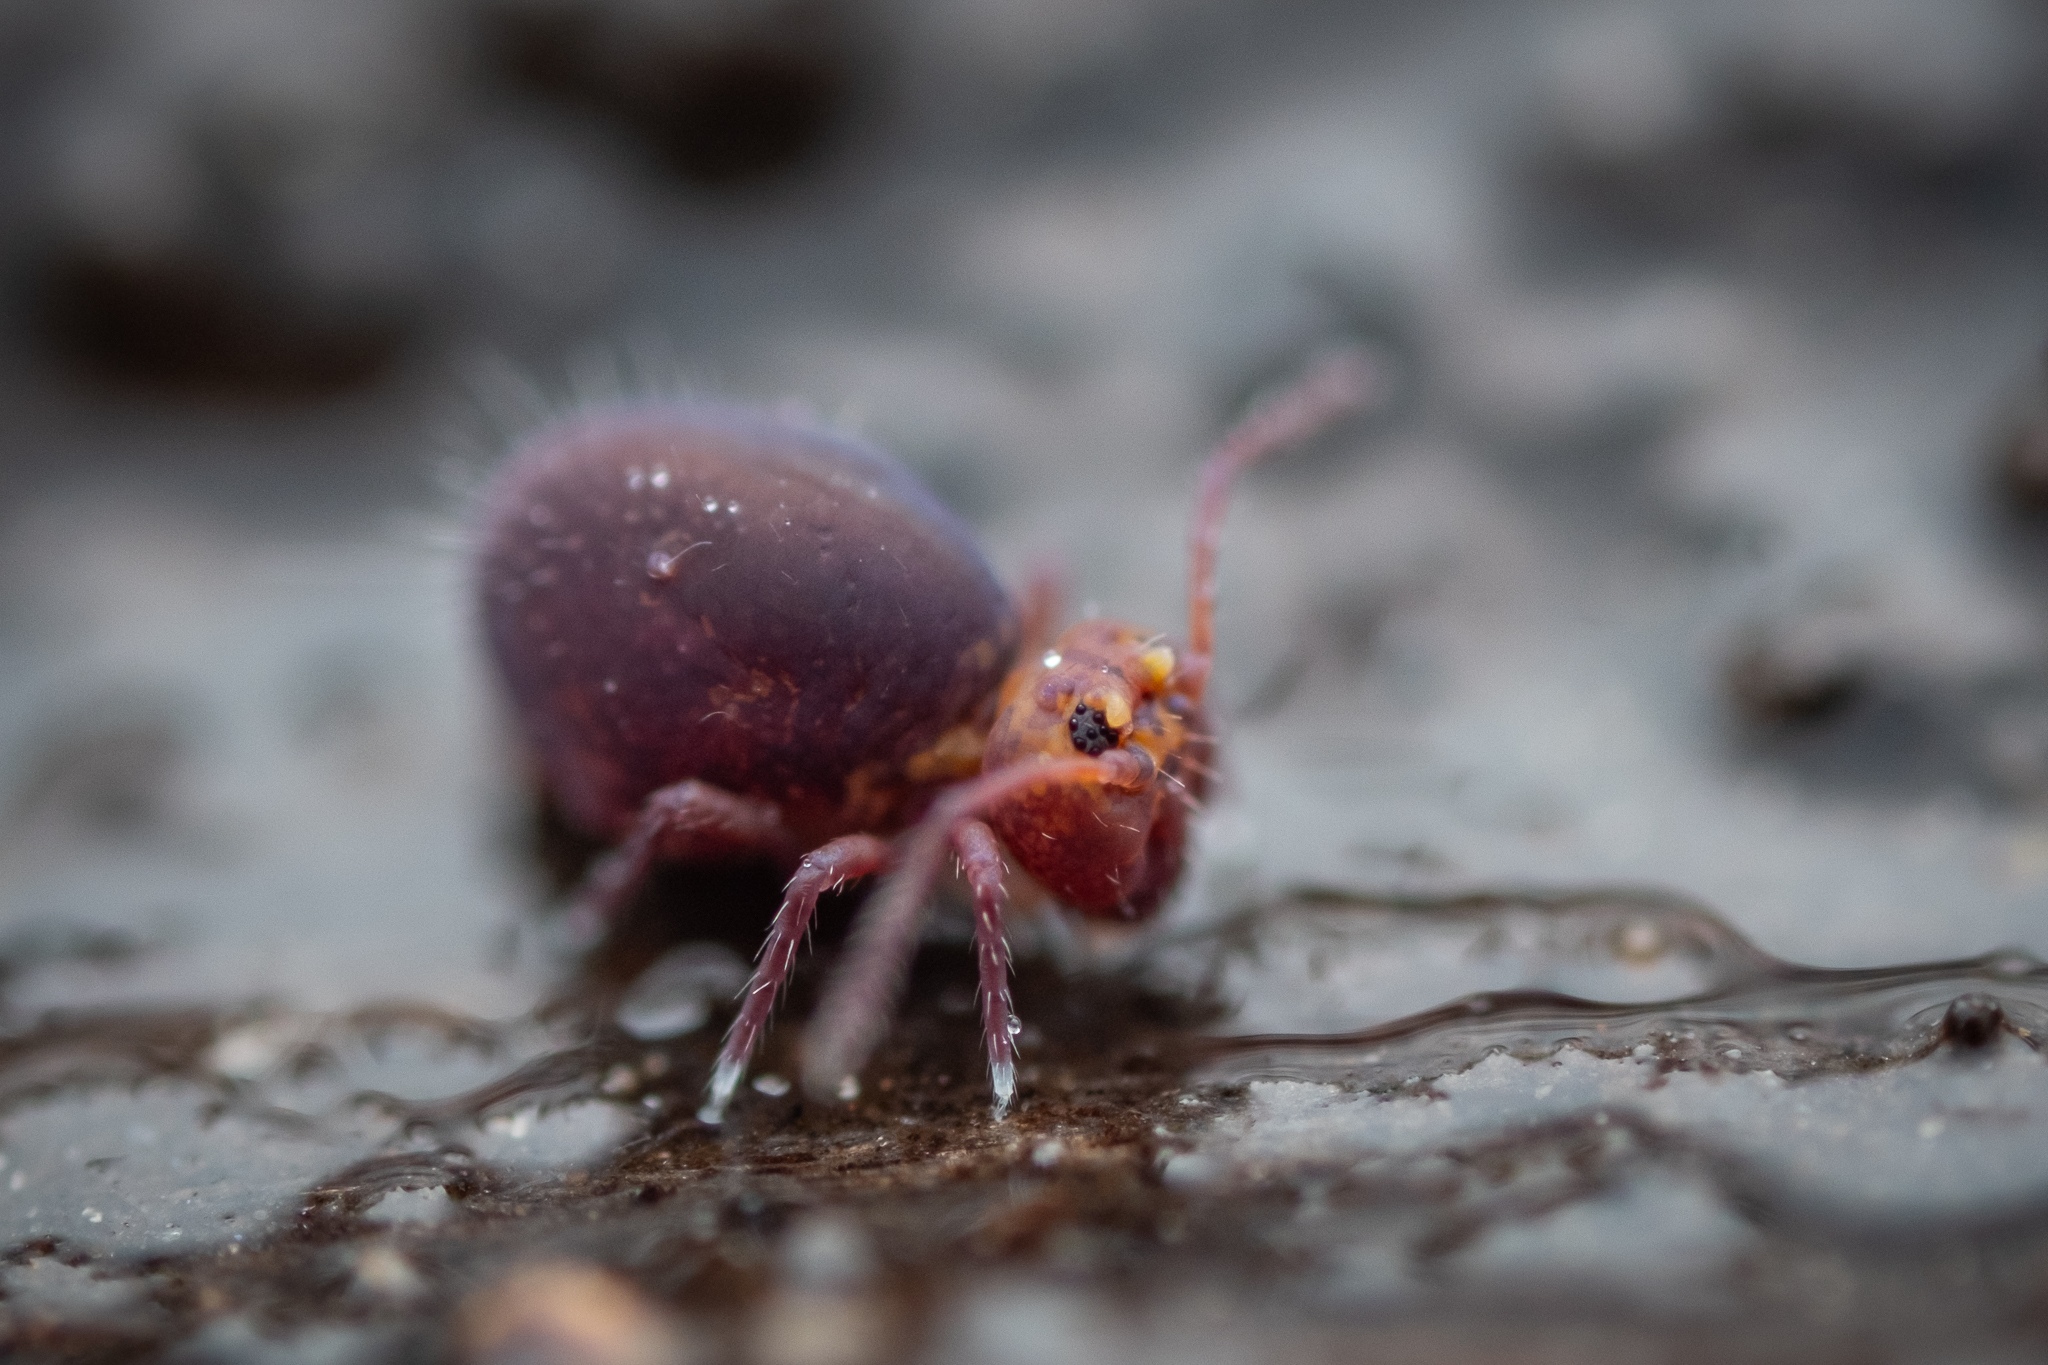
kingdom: Animalia
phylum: Arthropoda
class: Collembola
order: Symphypleona
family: Dicyrtomidae
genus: Dicyrtoma
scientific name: Dicyrtoma fusca
